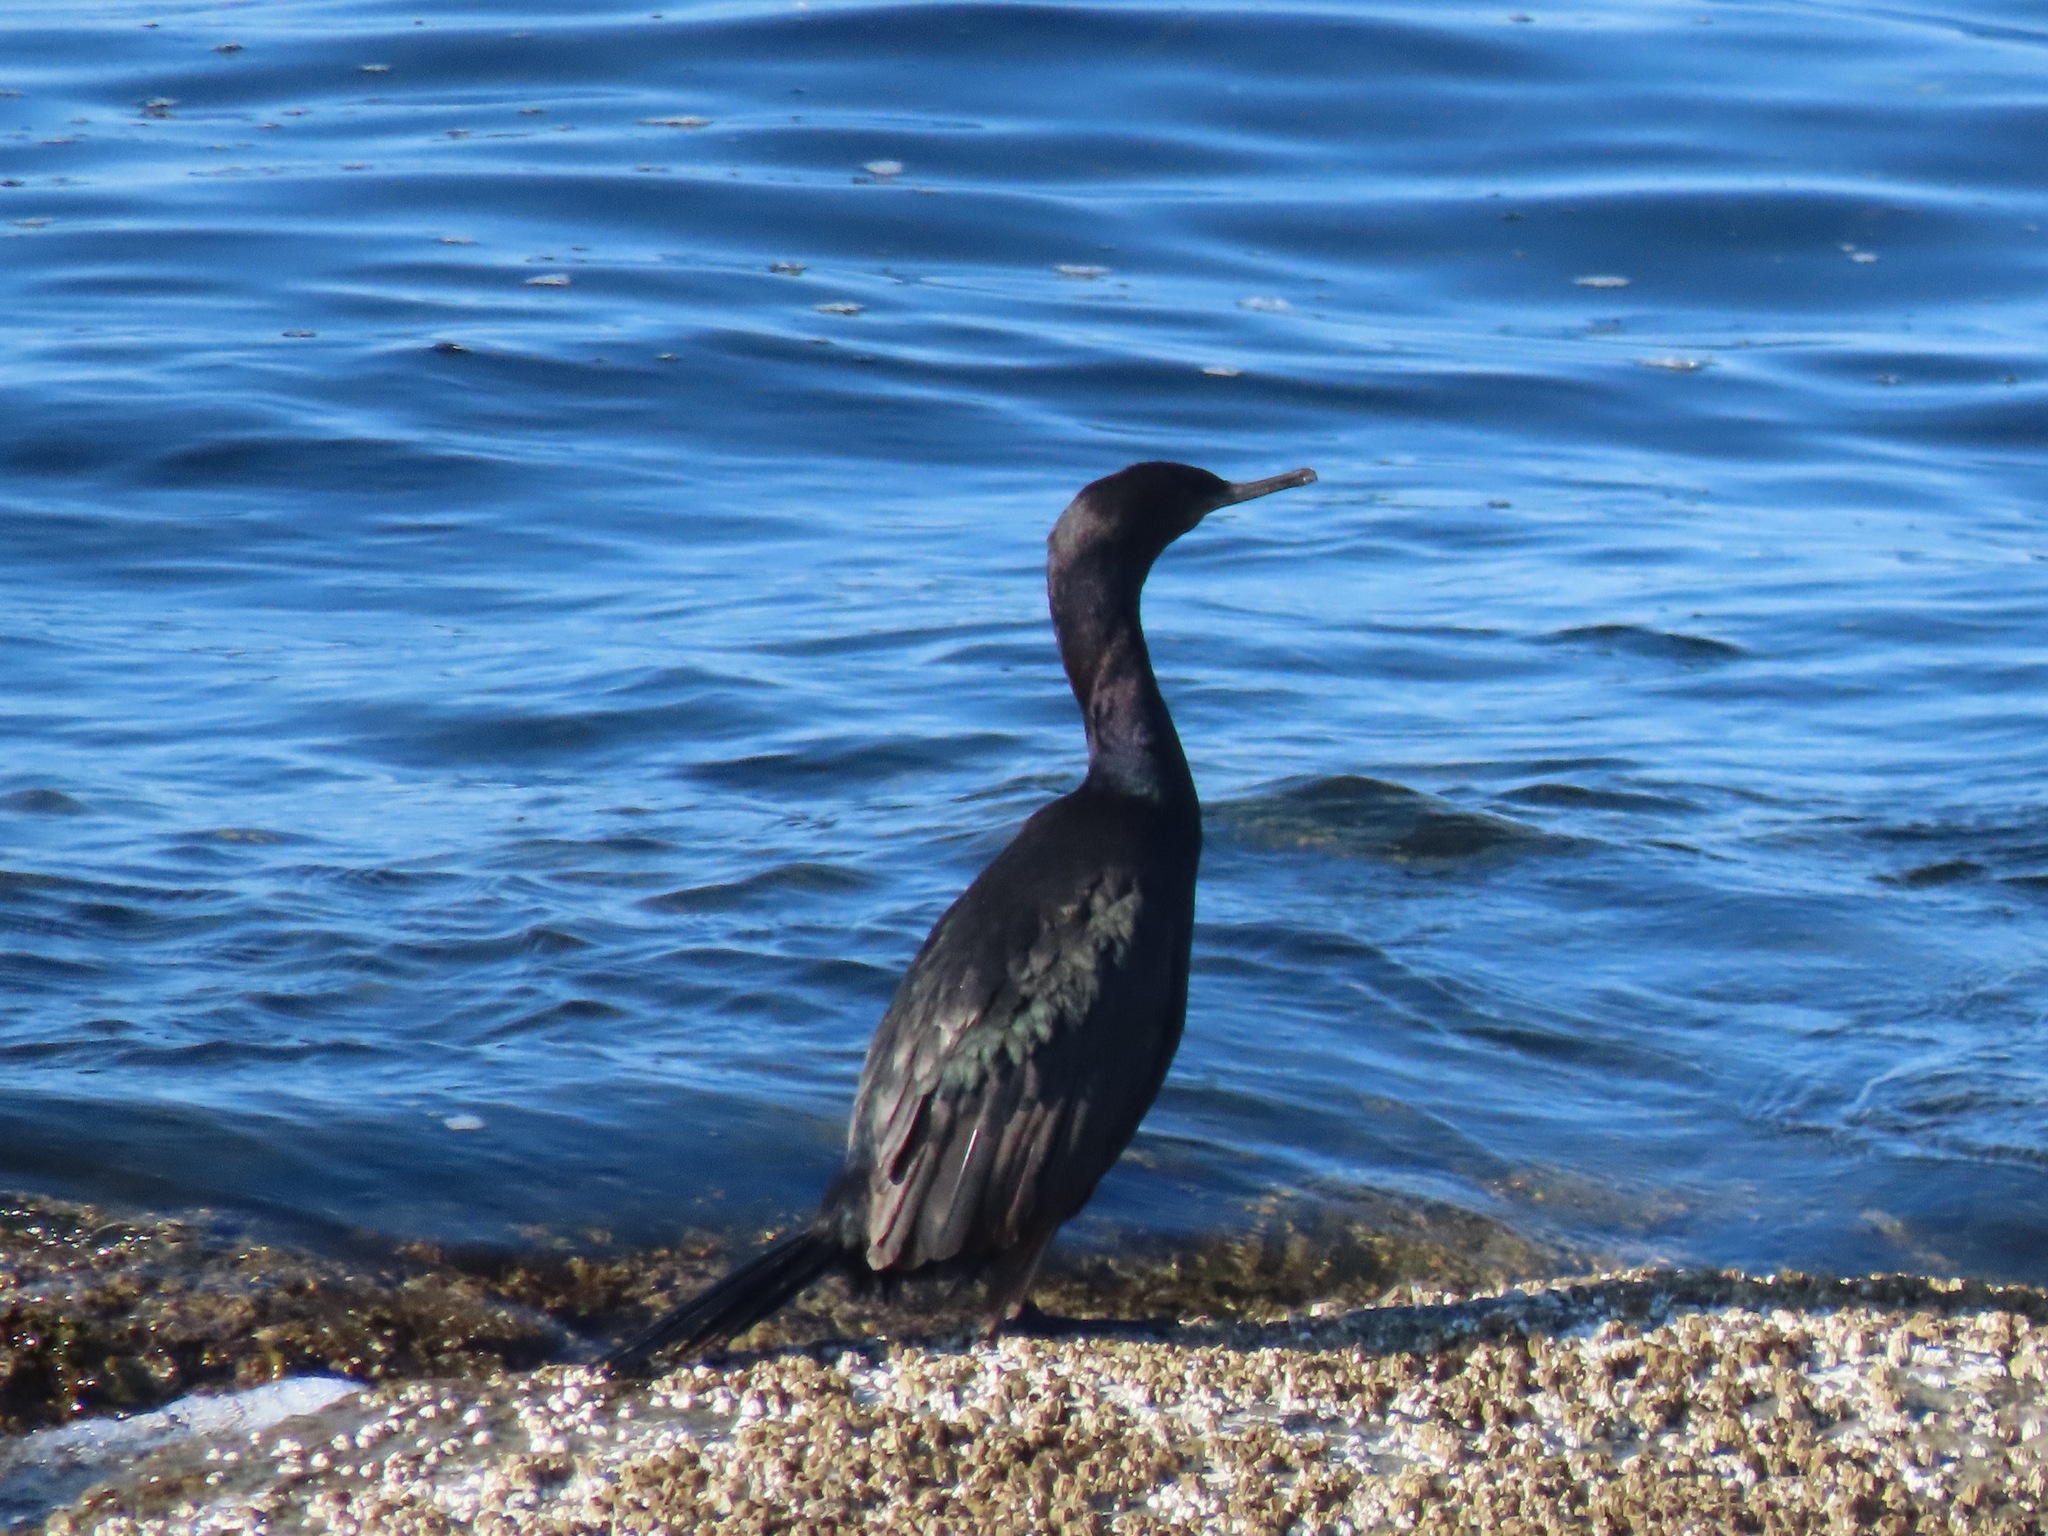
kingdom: Animalia
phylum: Chordata
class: Aves
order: Suliformes
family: Phalacrocoracidae
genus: Phalacrocorax
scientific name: Phalacrocorax pelagicus
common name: Pelagic cormorant
